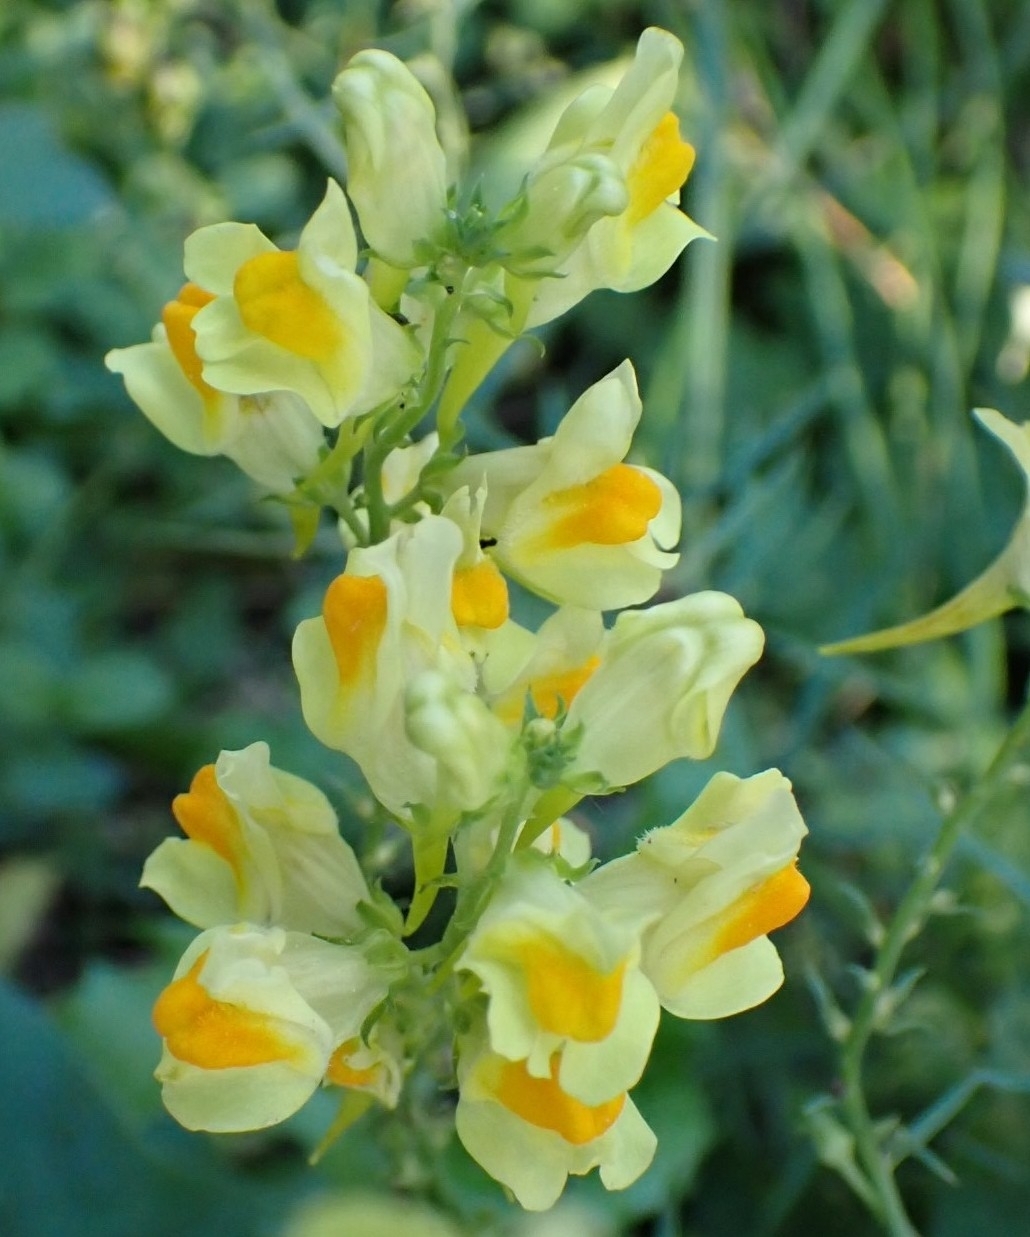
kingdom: Plantae
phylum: Tracheophyta
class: Magnoliopsida
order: Lamiales
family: Plantaginaceae
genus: Linaria
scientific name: Linaria vulgaris
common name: Butter and eggs
